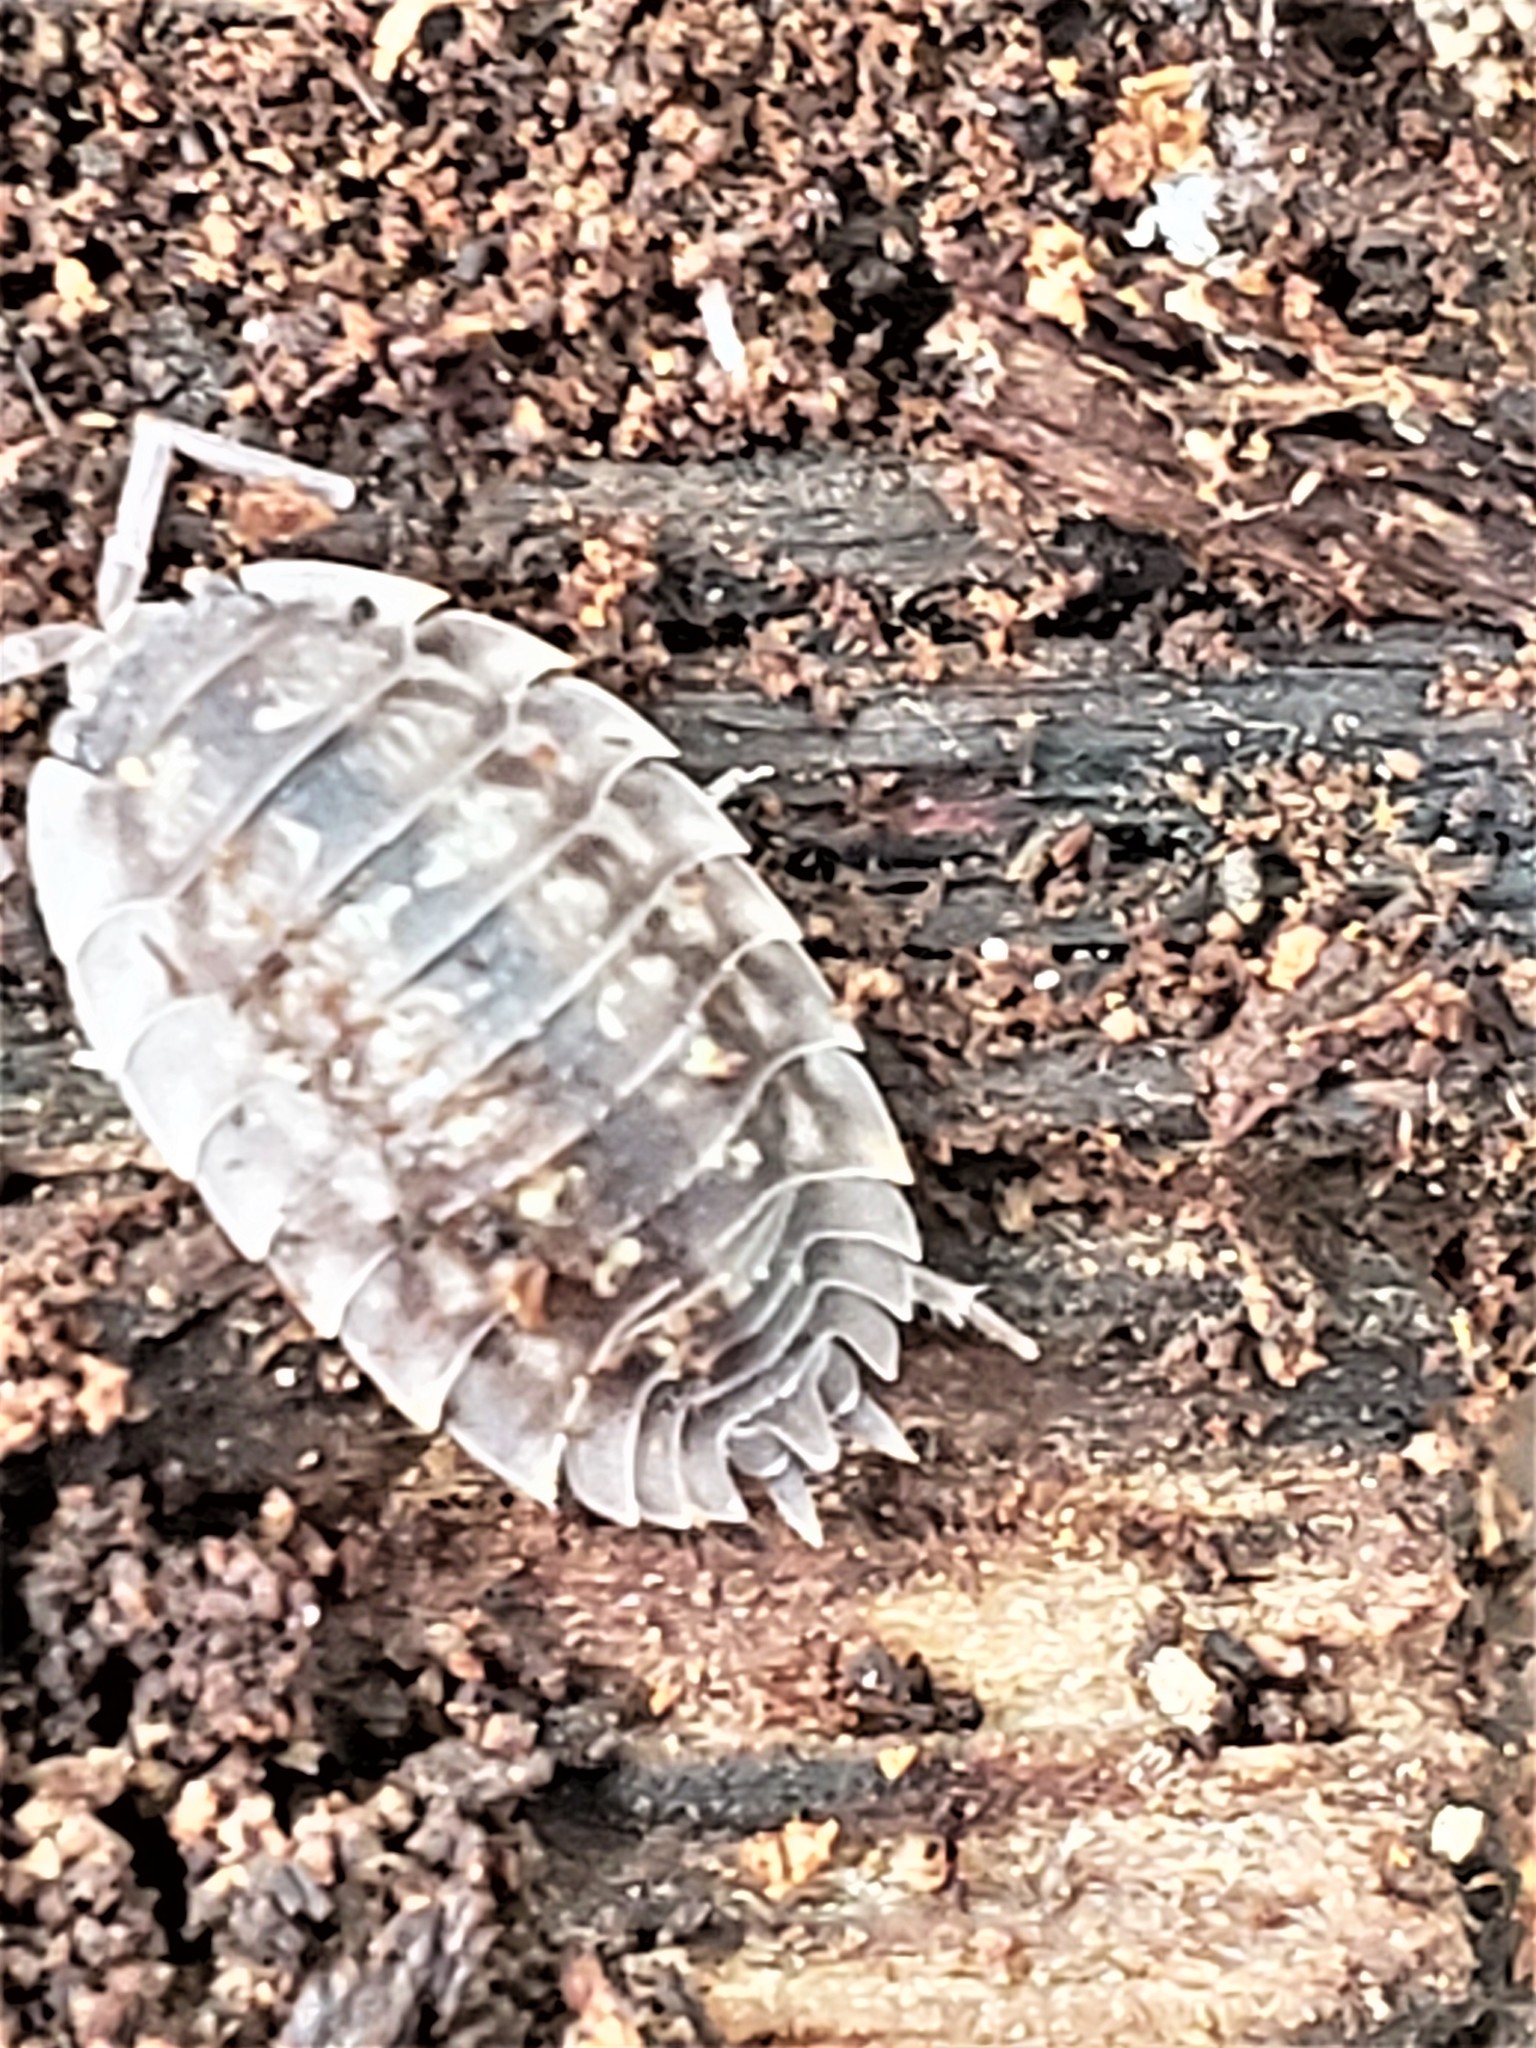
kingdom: Animalia
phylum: Arthropoda
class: Malacostraca
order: Isopoda
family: Oniscidae
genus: Oniscus
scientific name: Oniscus asellus
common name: Common shiny woodlouse
